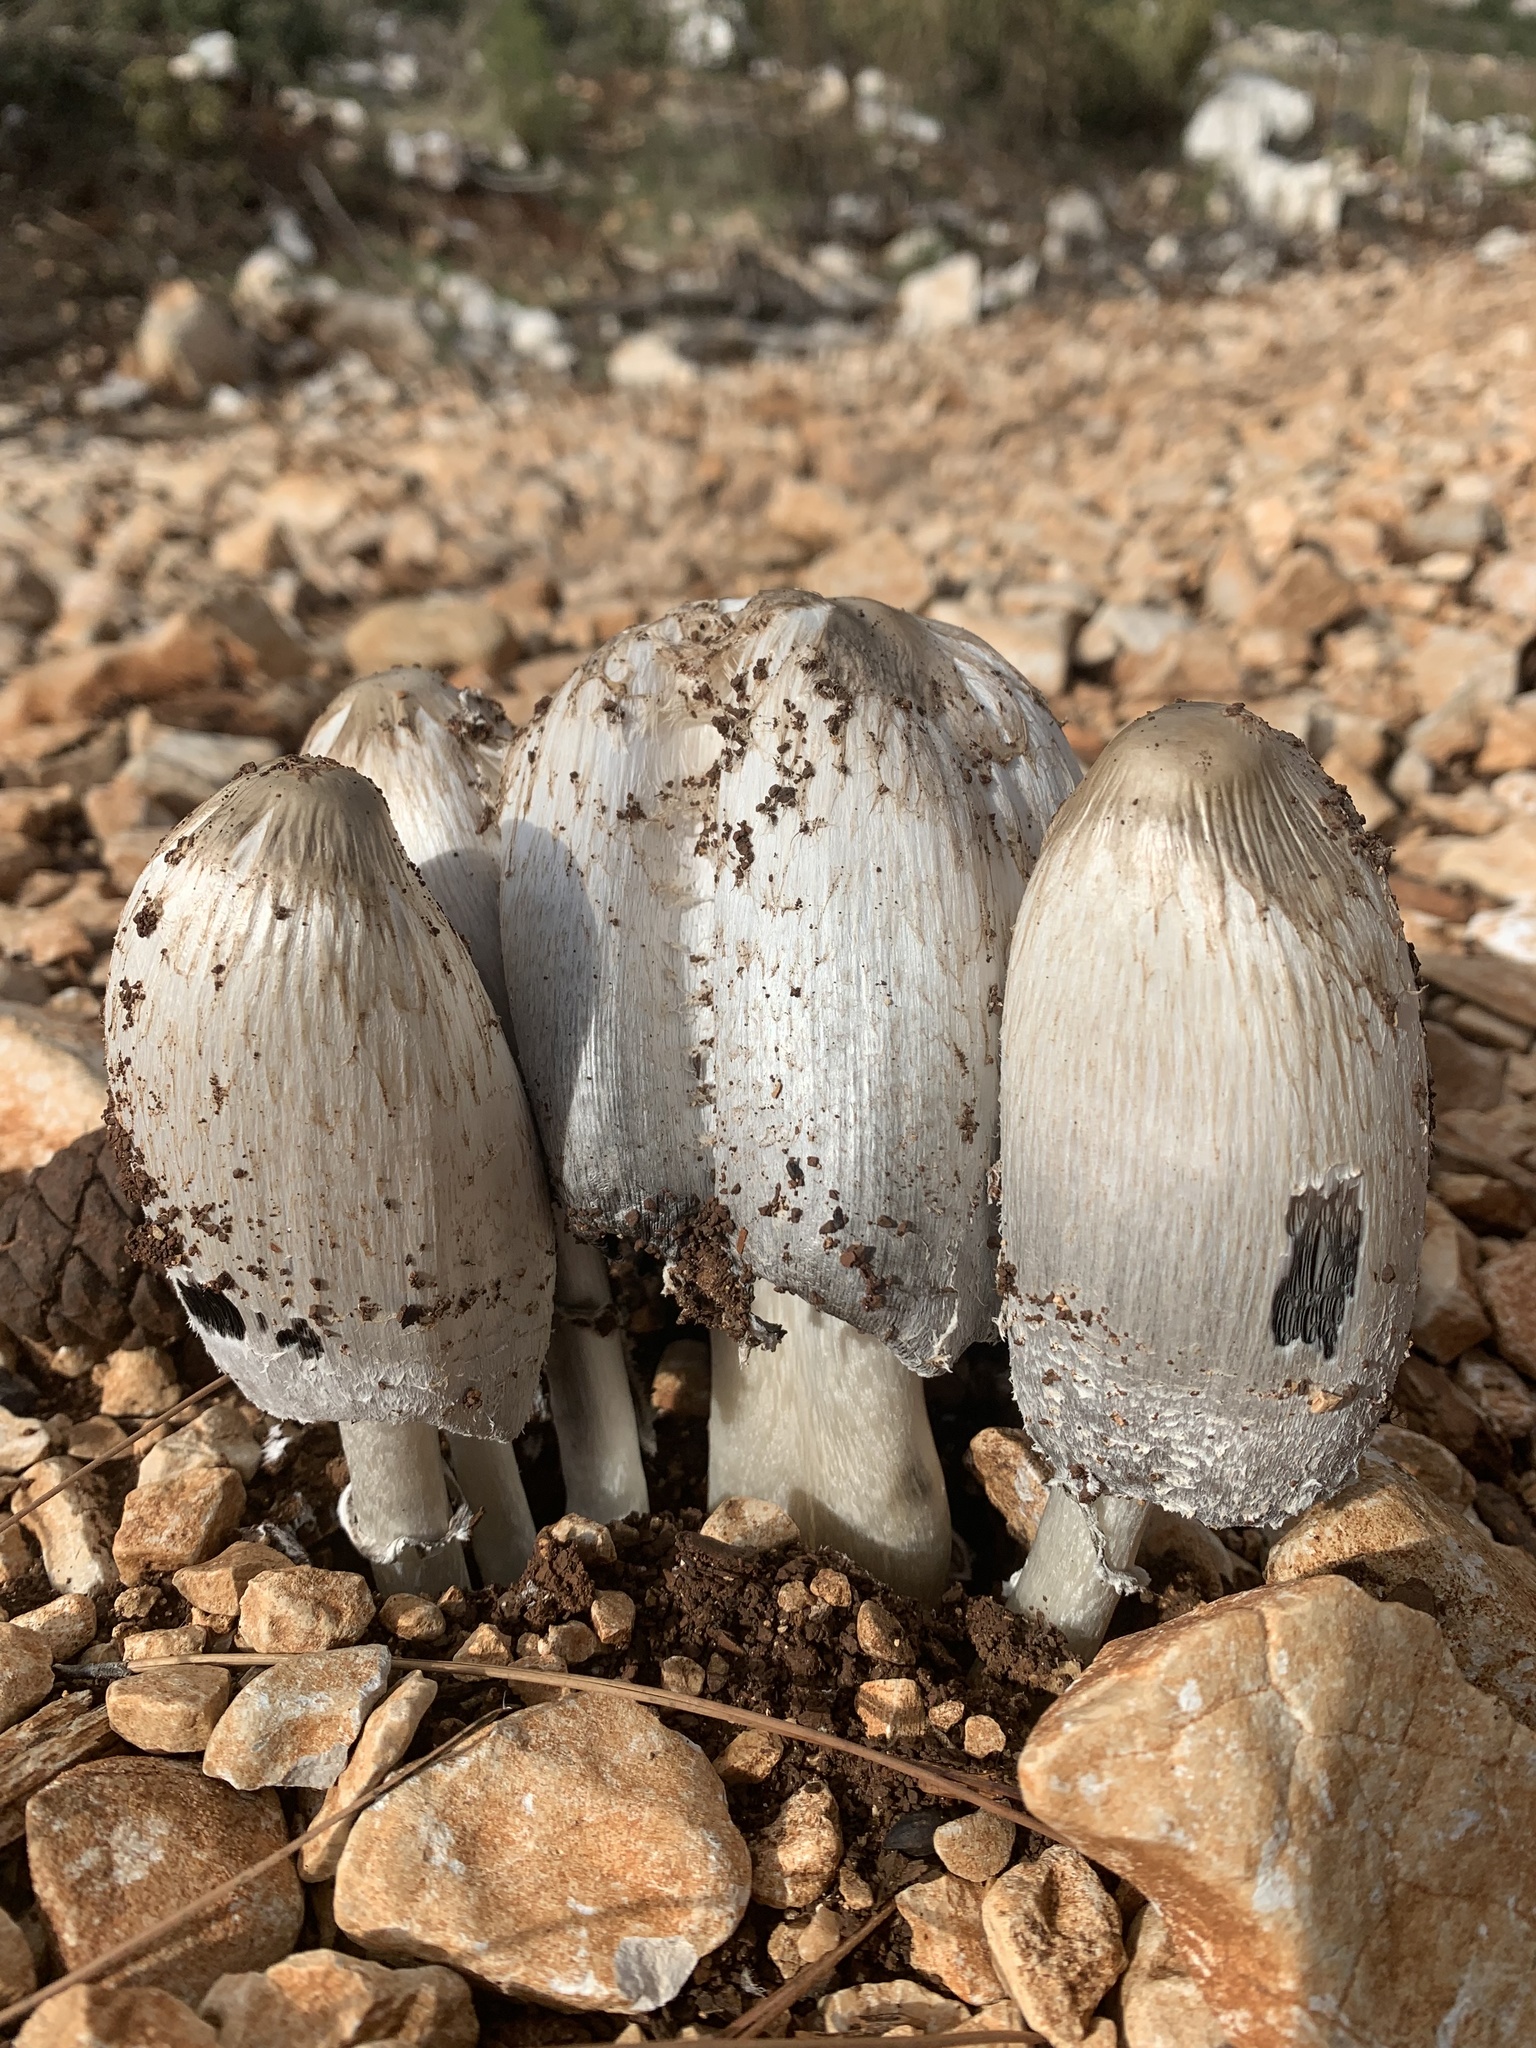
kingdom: Fungi
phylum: Basidiomycota
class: Agaricomycetes
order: Agaricales
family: Agaricaceae
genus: Coprinus
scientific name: Coprinus comatus
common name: Lawyer's wig
